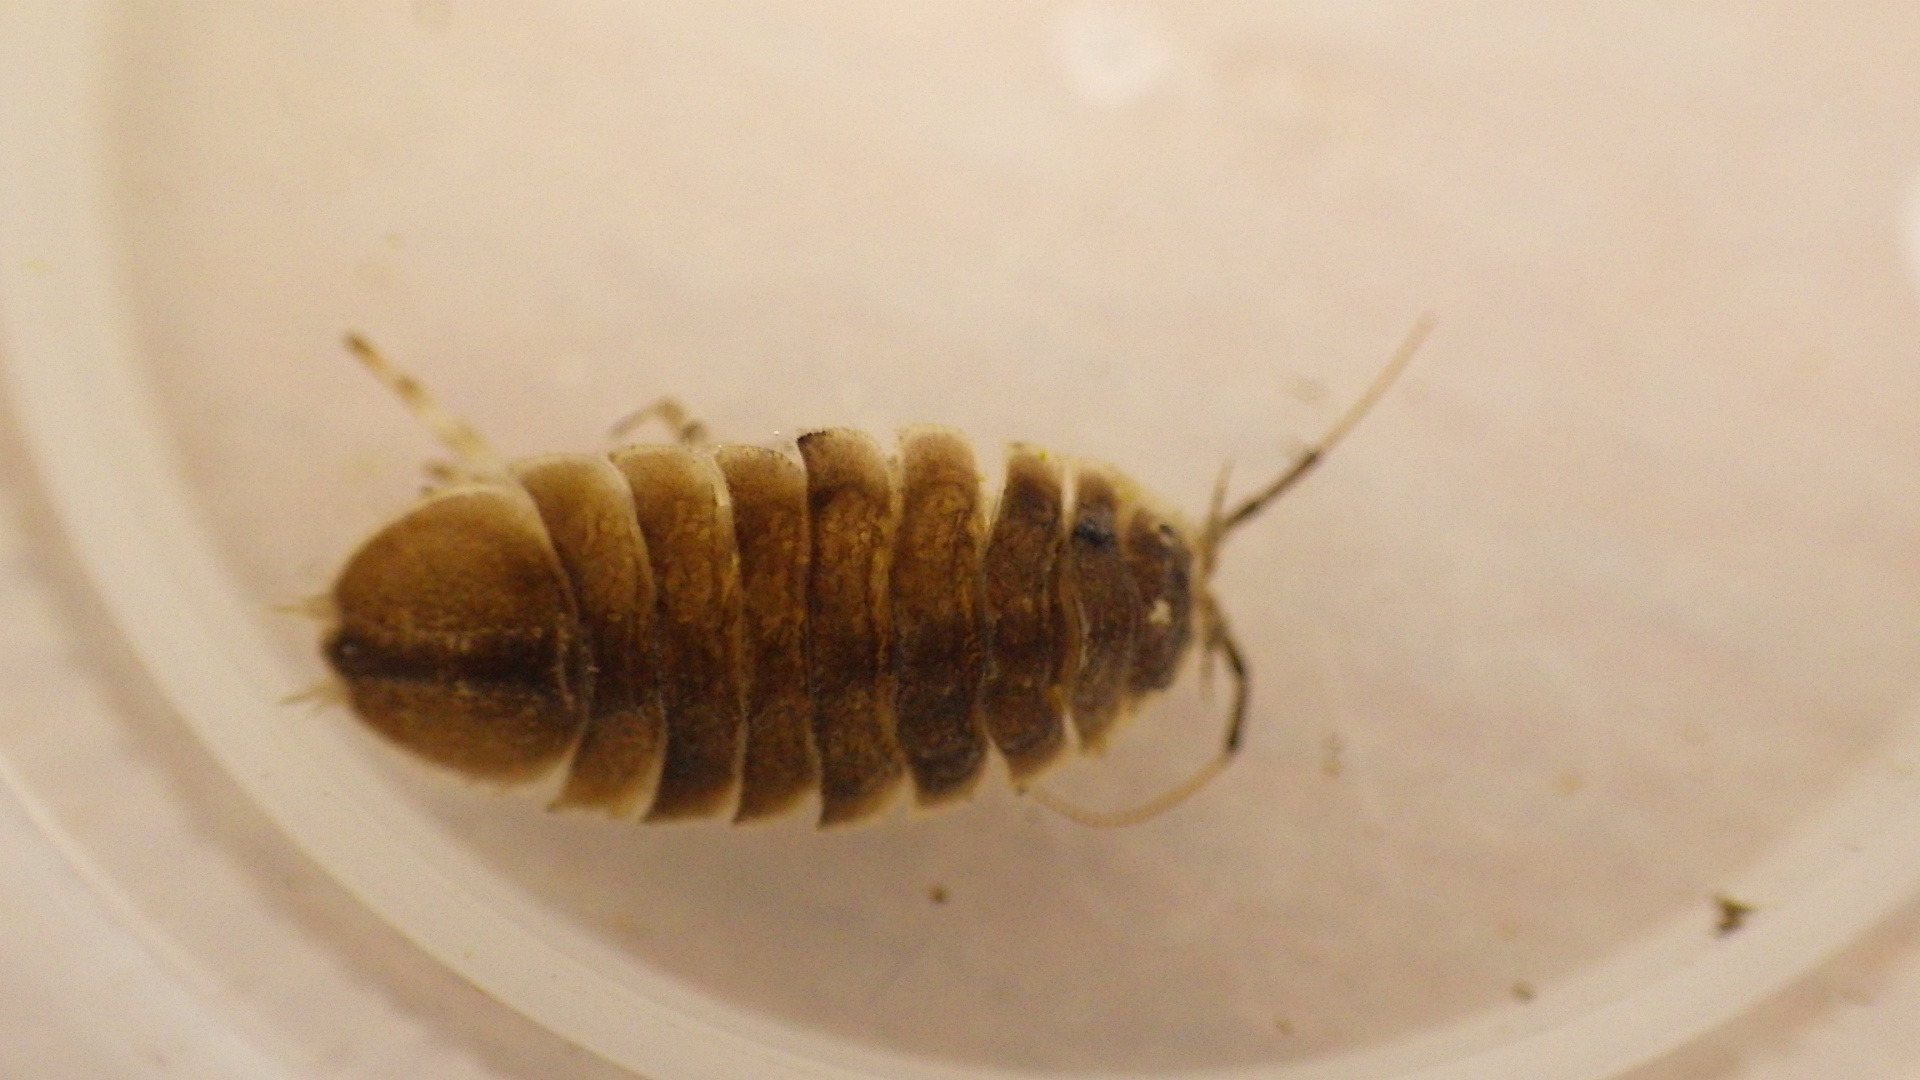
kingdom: Animalia
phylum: Arthropoda
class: Malacostraca
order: Isopoda
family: Asellidae
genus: Lirceus
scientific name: Lirceus brachyurus
